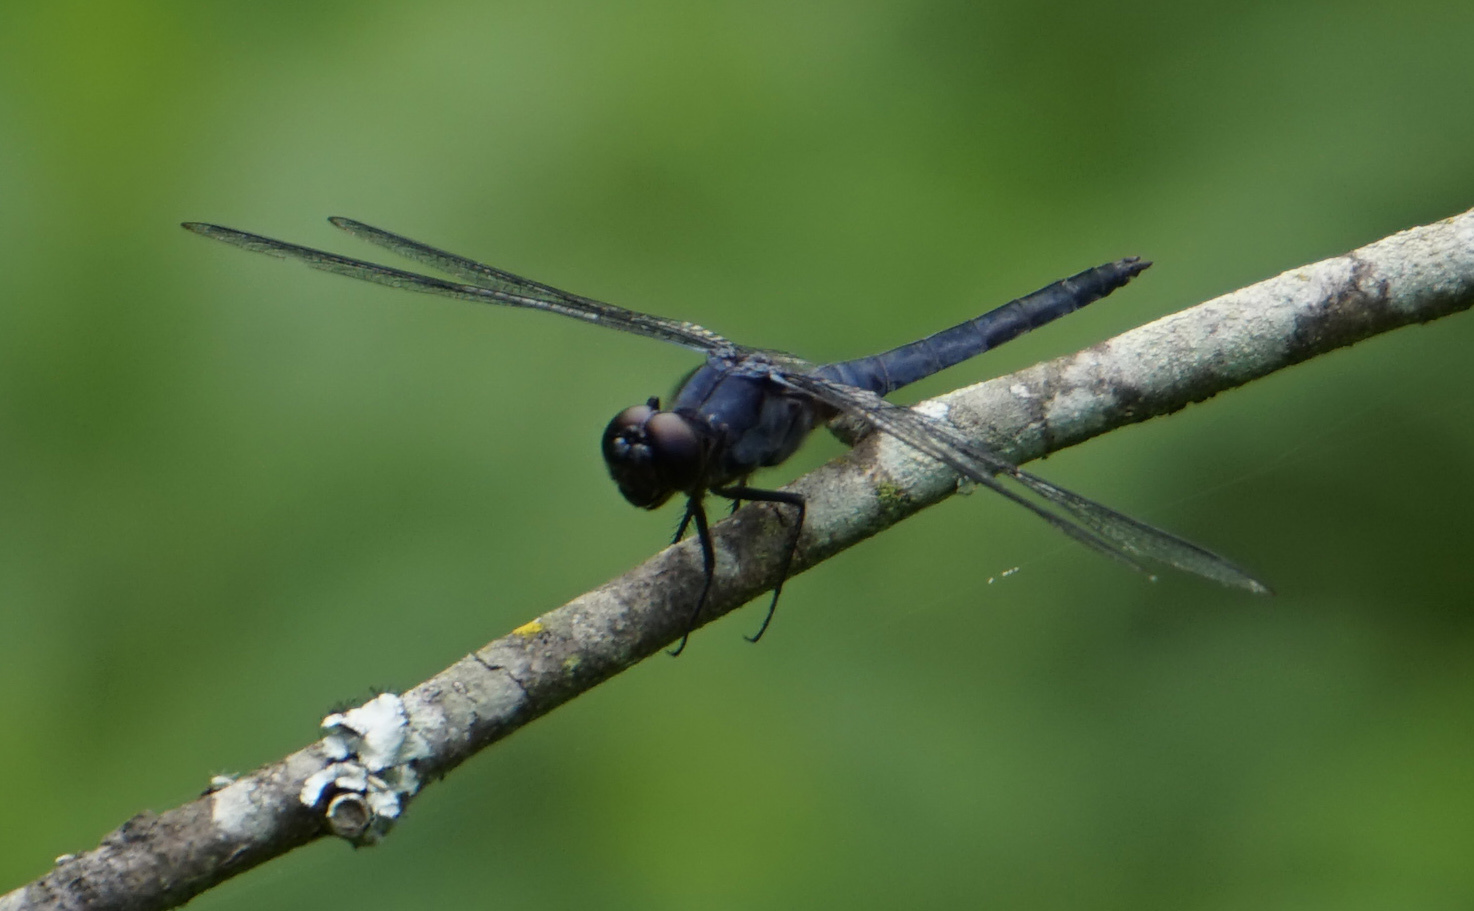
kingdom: Animalia
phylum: Arthropoda
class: Insecta
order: Odonata
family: Libellulidae
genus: Libellula
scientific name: Libellula incesta
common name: Slaty skimmer
